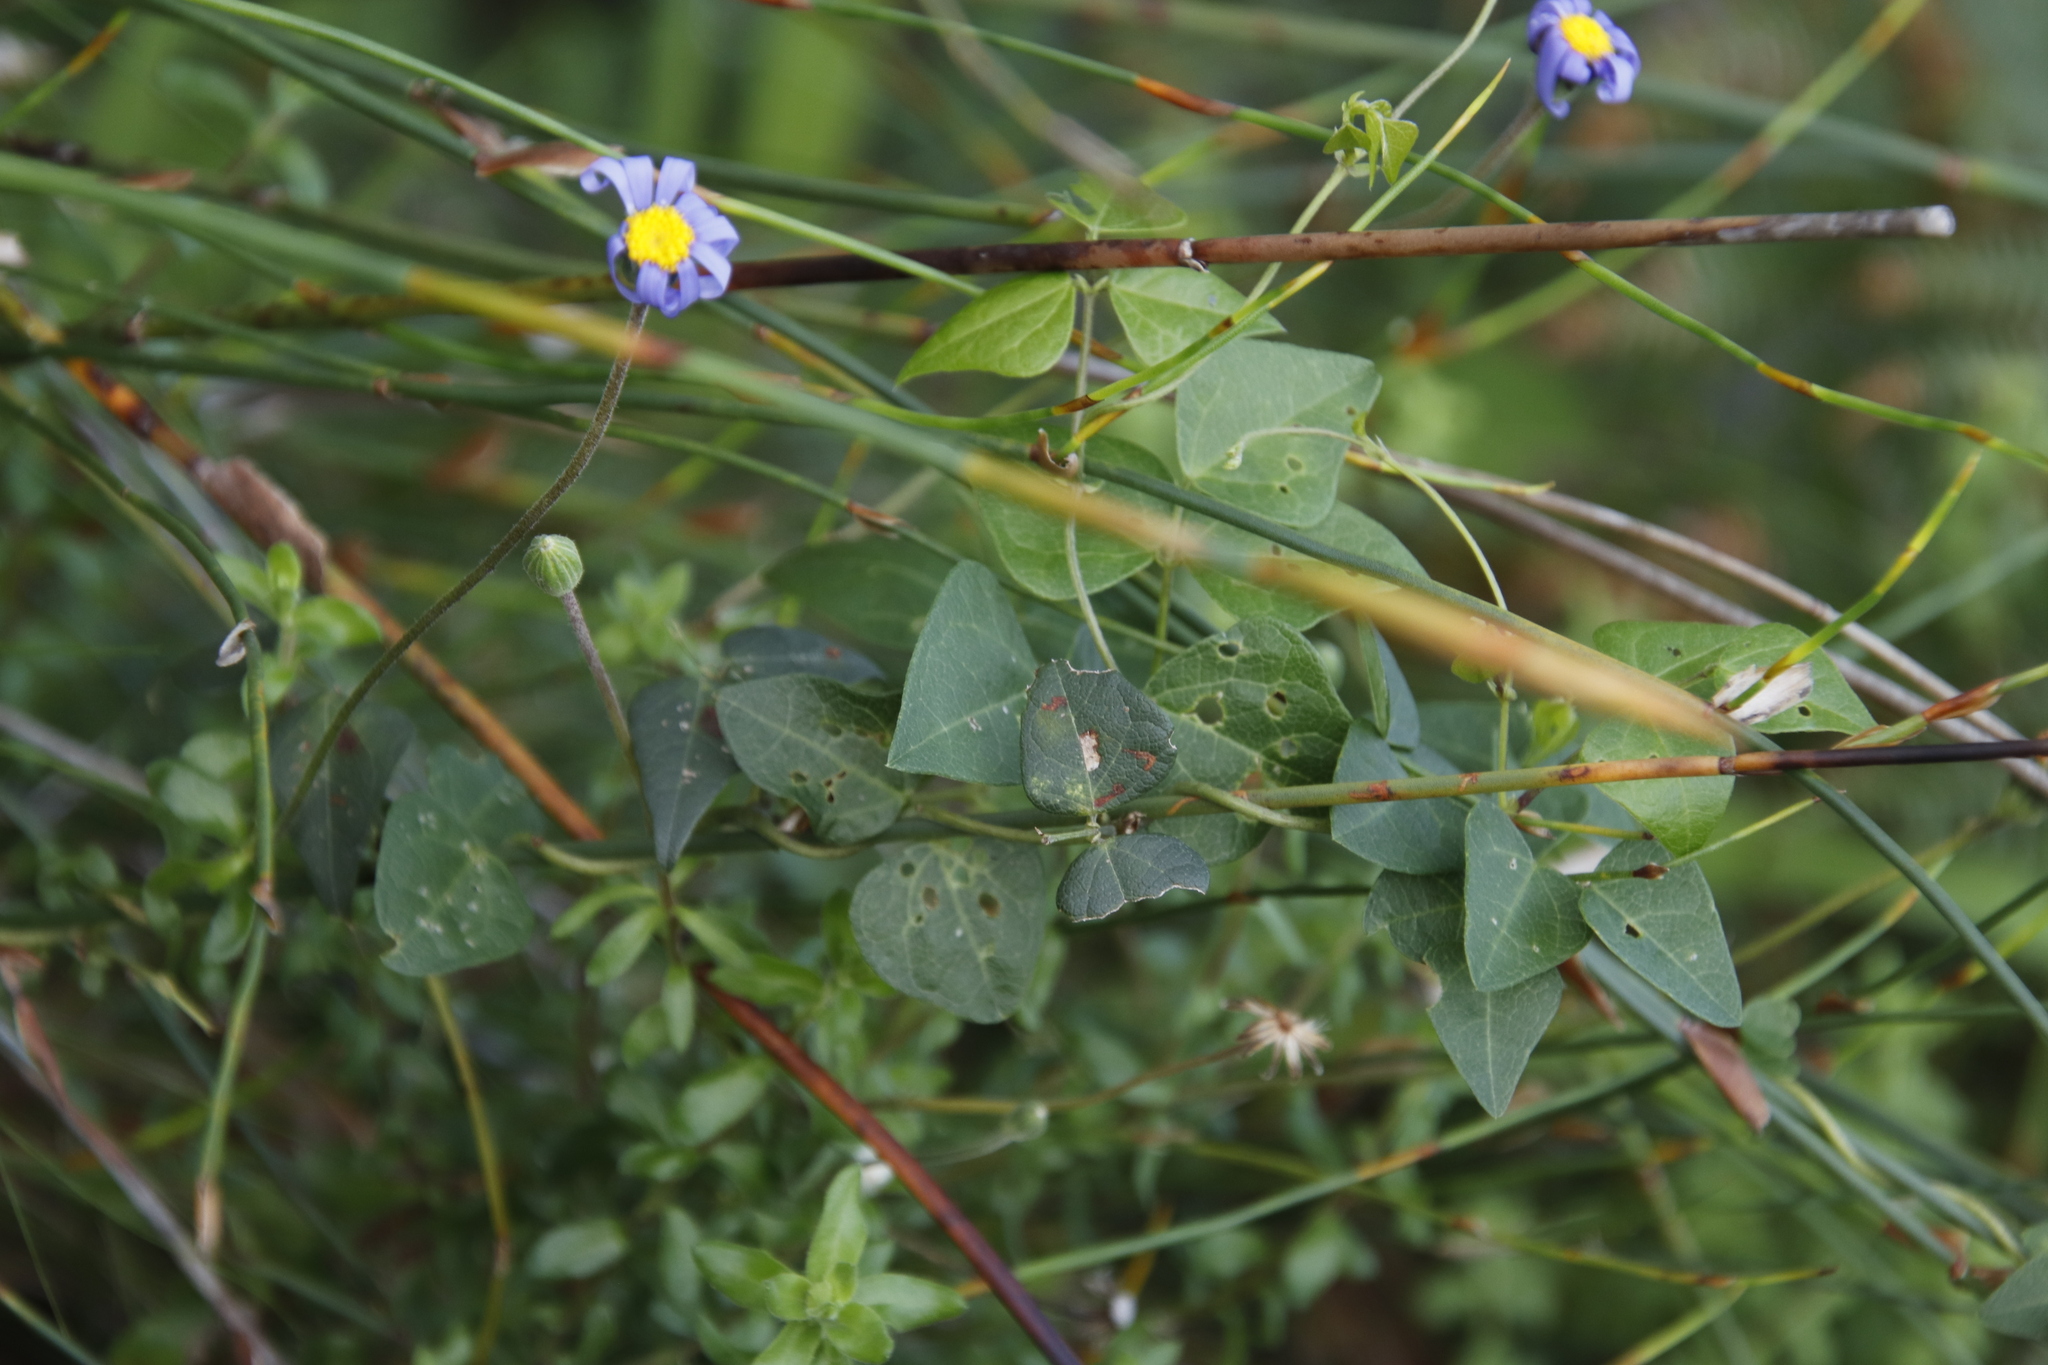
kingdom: Plantae
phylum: Tracheophyta
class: Magnoliopsida
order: Asterales
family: Asteraceae
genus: Felicia
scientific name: Felicia aethiopica
